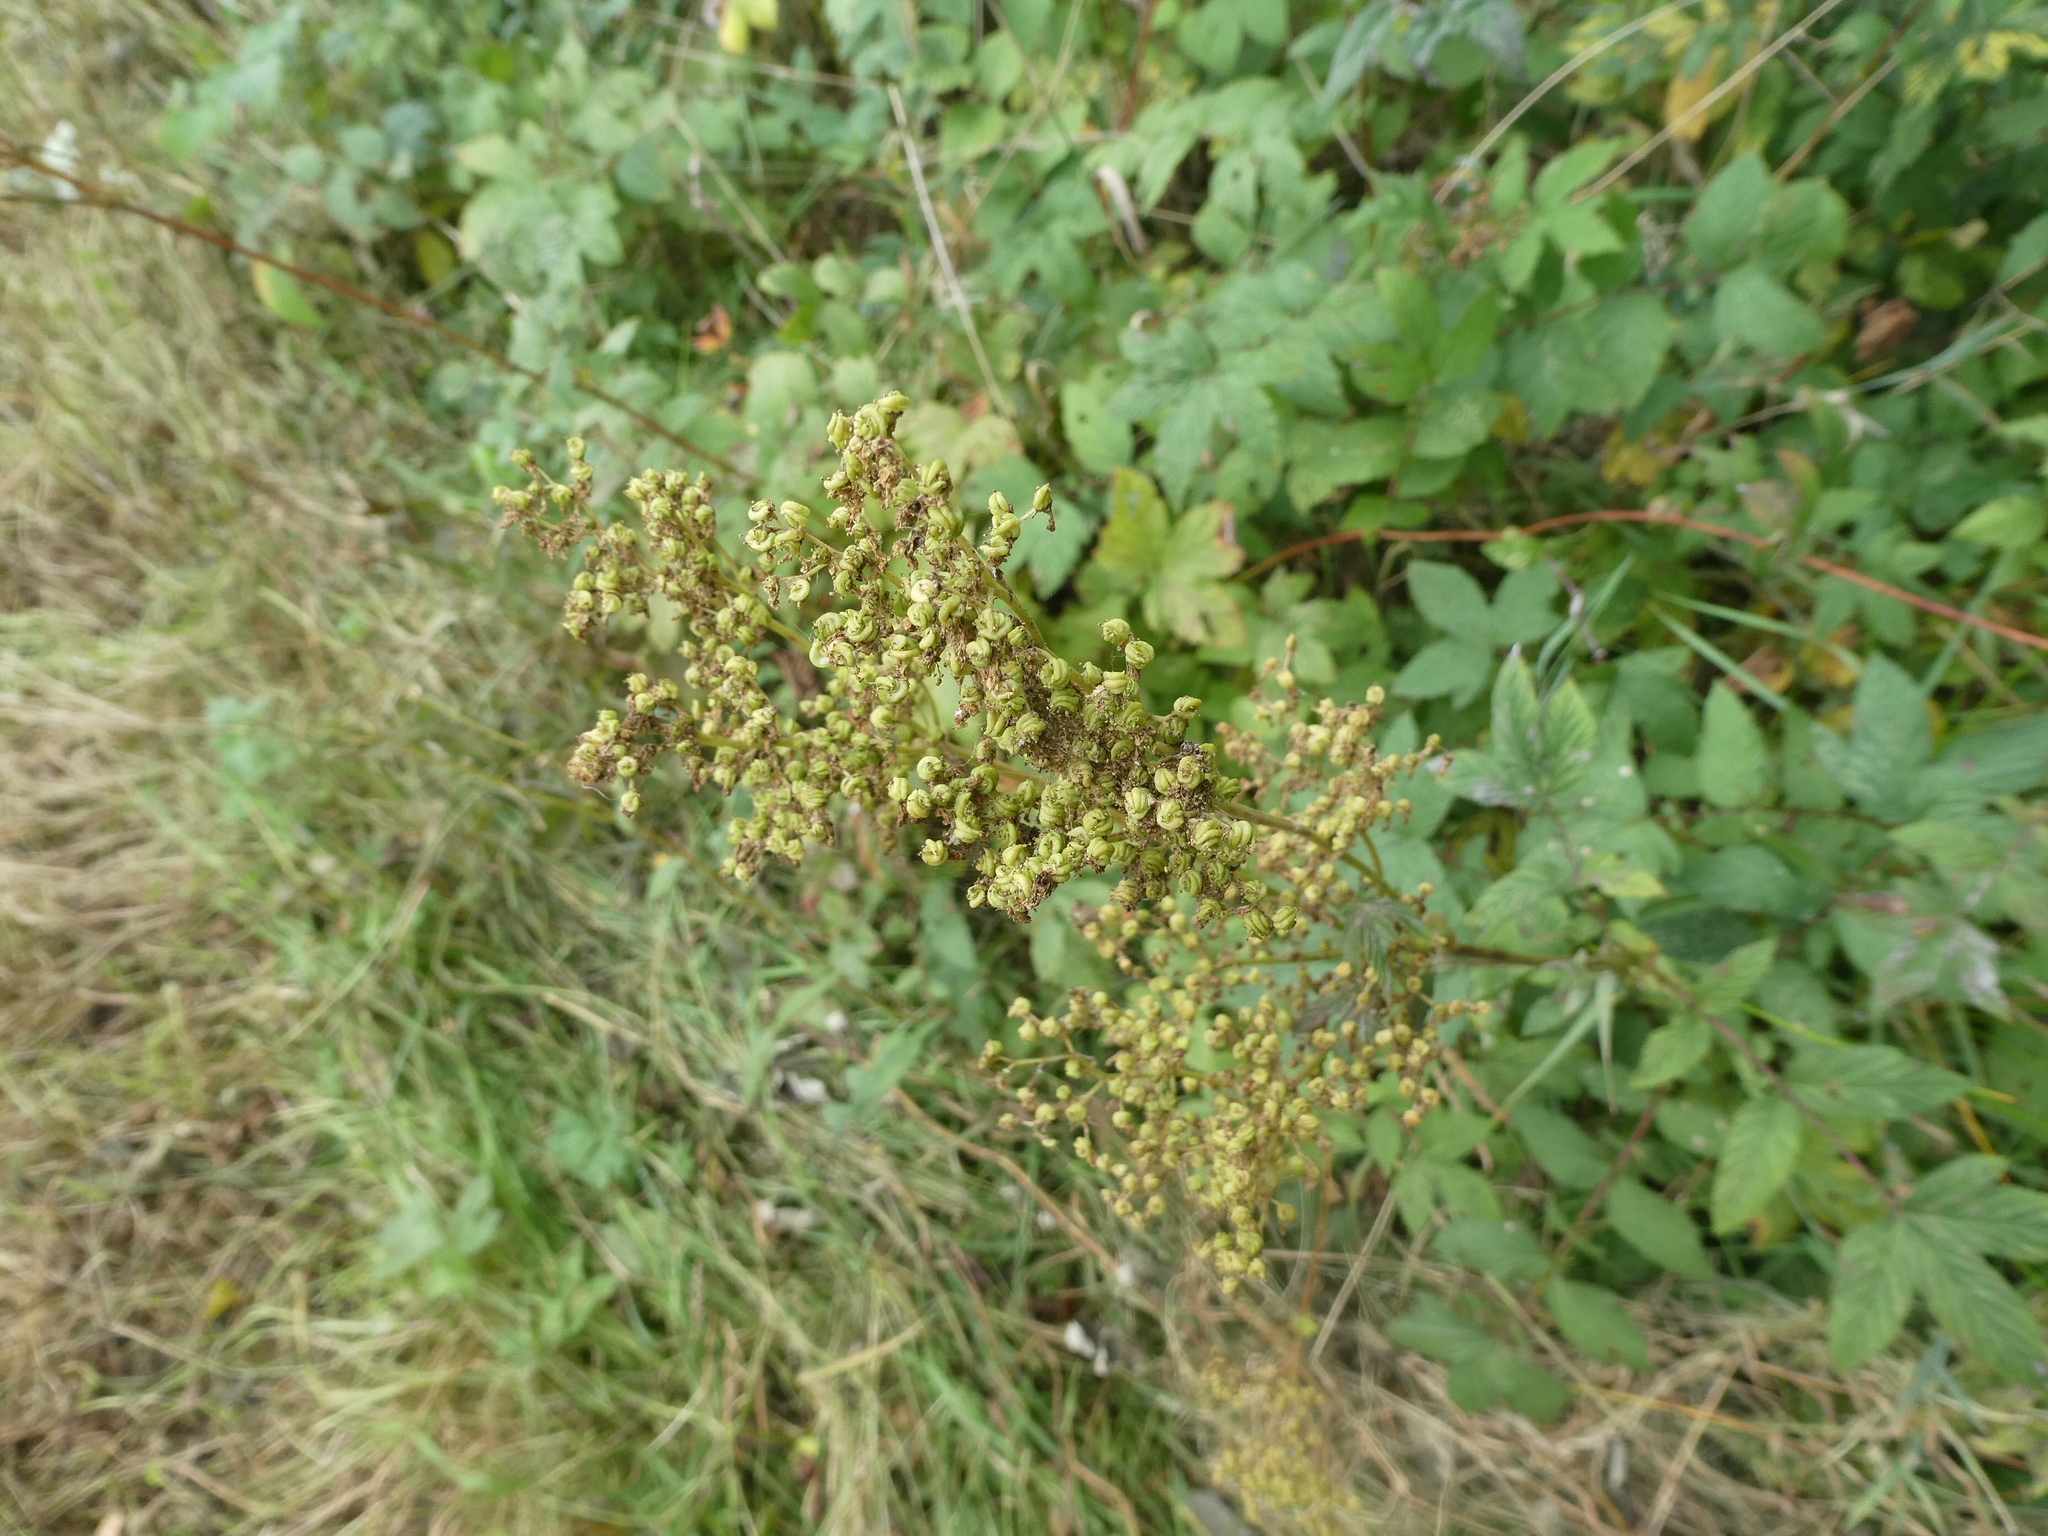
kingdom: Plantae
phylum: Tracheophyta
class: Magnoliopsida
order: Rosales
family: Rosaceae
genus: Filipendula
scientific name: Filipendula ulmaria
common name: Meadowsweet
